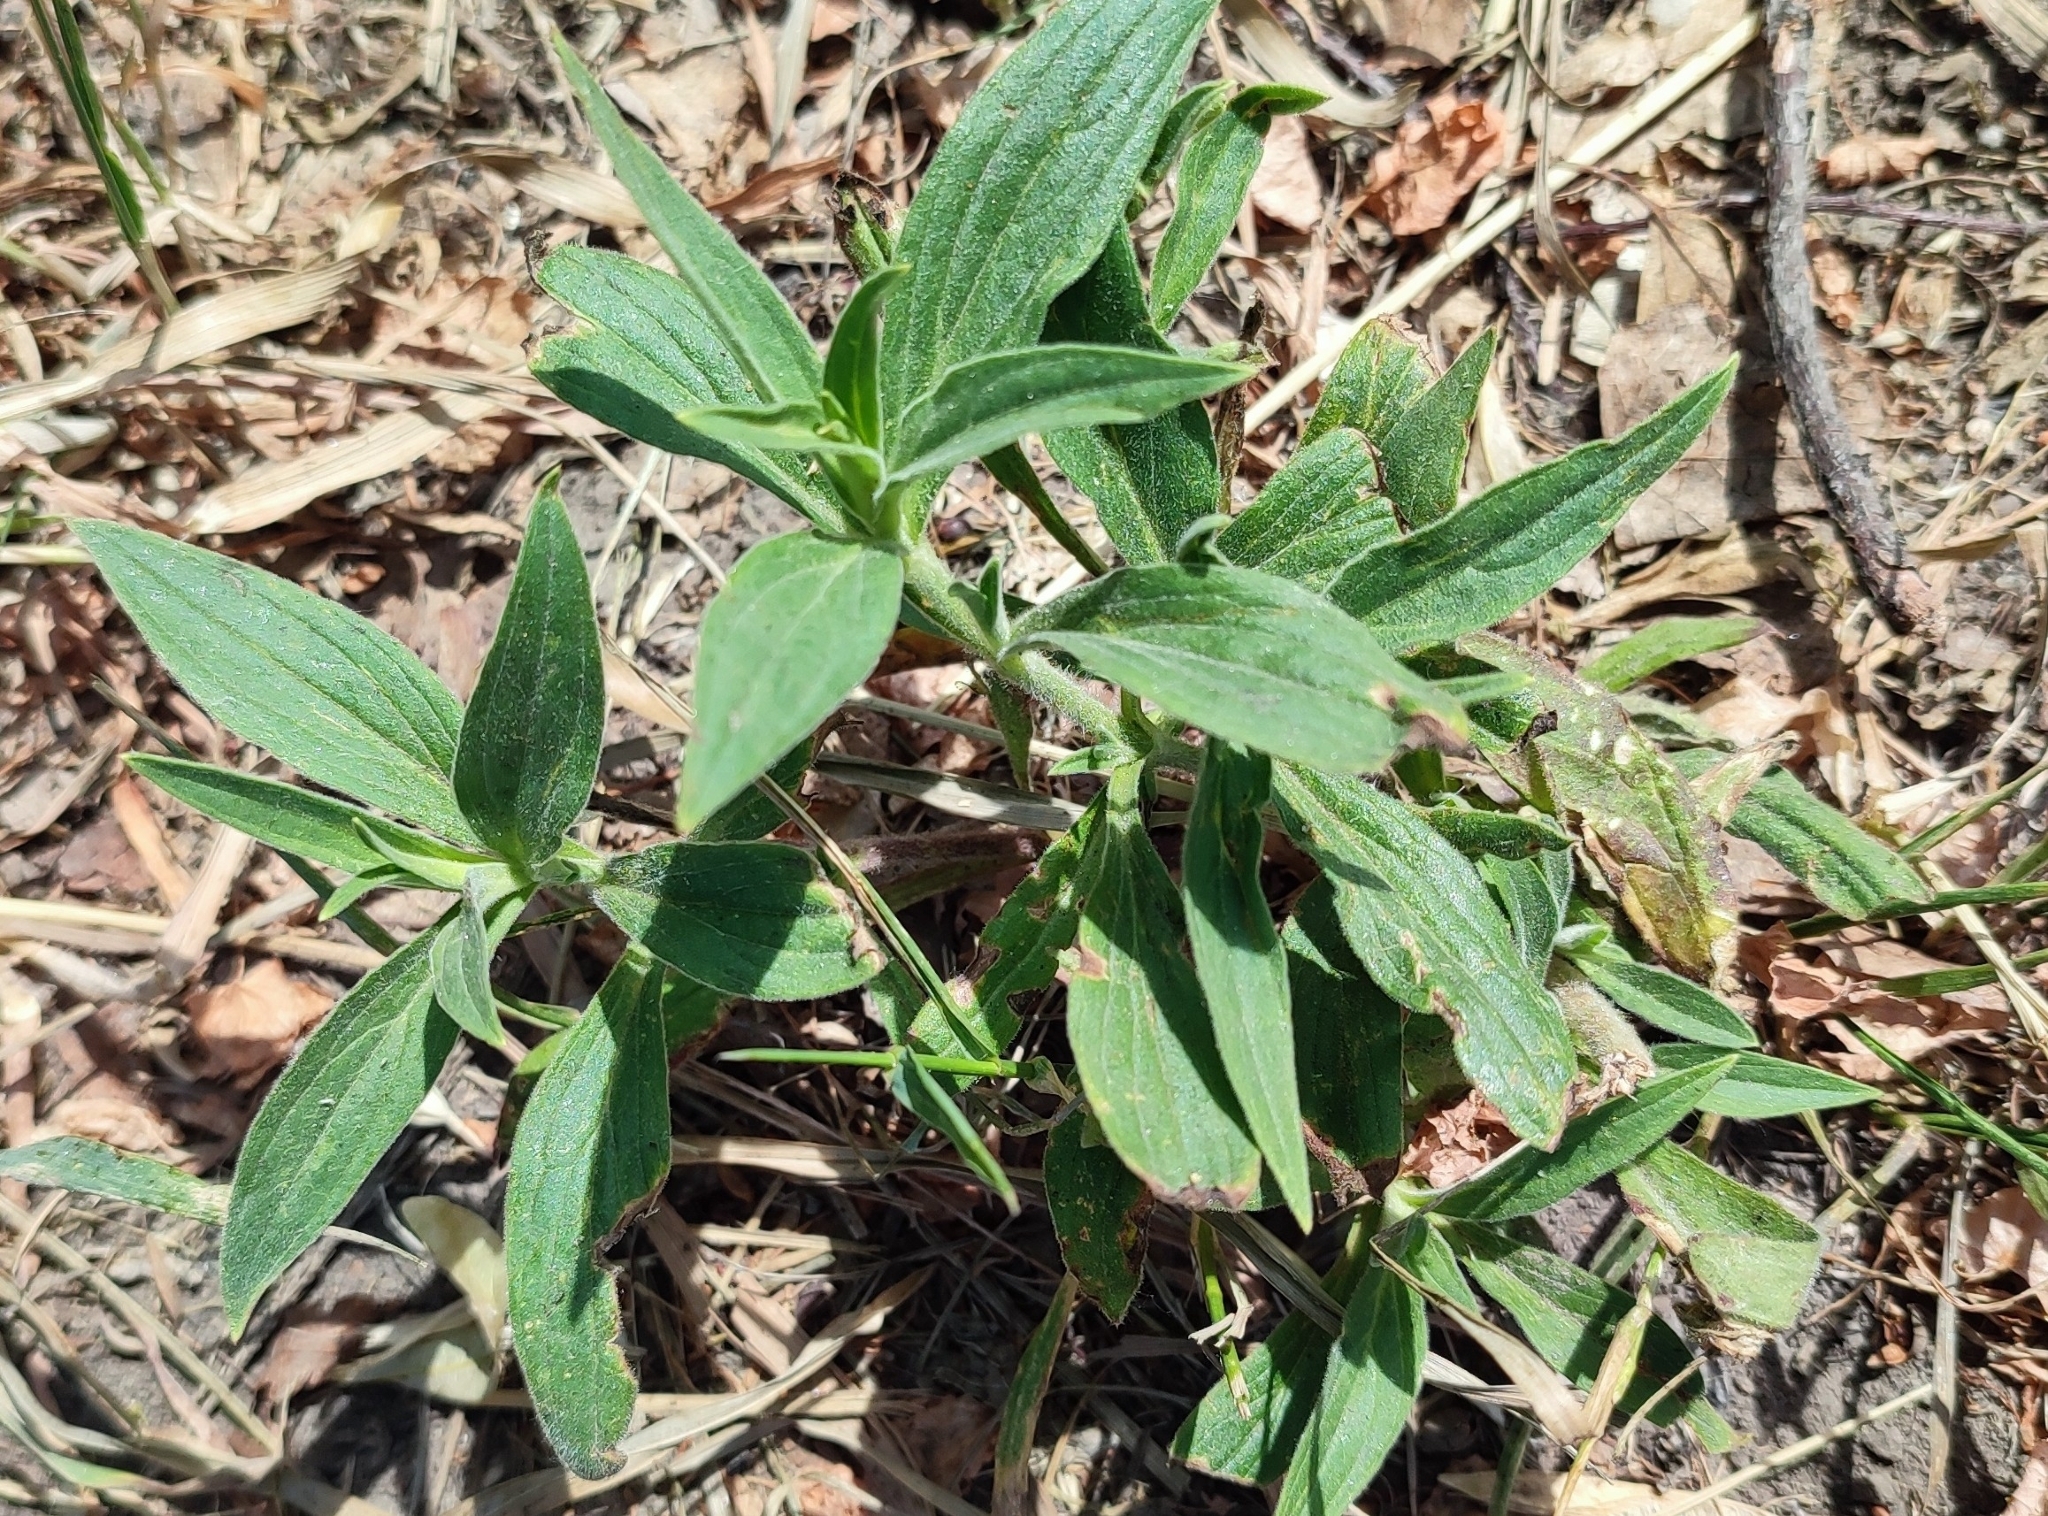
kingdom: Plantae
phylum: Tracheophyta
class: Magnoliopsida
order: Caryophyllales
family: Caryophyllaceae
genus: Silene
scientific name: Silene latifolia
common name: White campion
